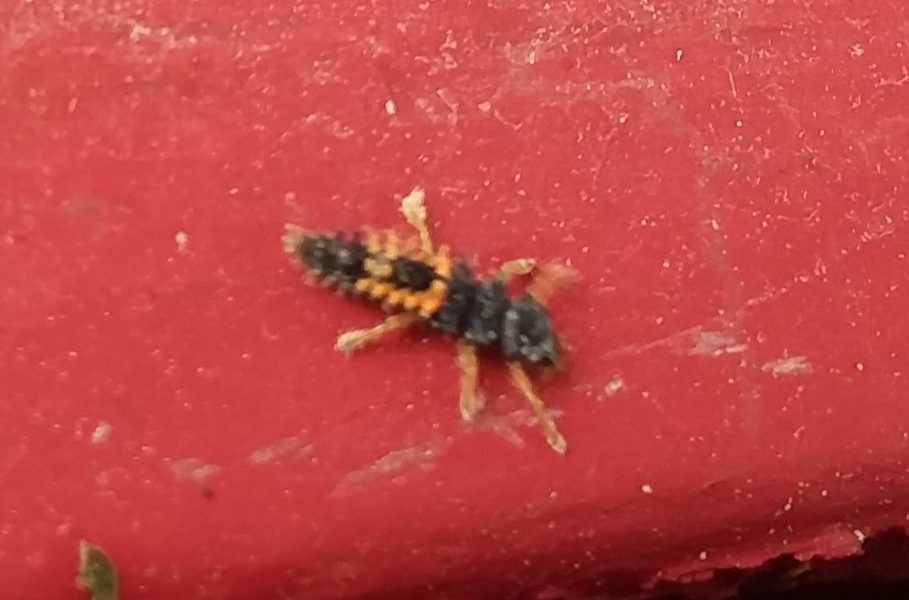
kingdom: Animalia
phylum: Arthropoda
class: Insecta
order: Coleoptera
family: Coccinellidae
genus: Harmonia
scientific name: Harmonia axyridis
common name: Harlequin ladybird
